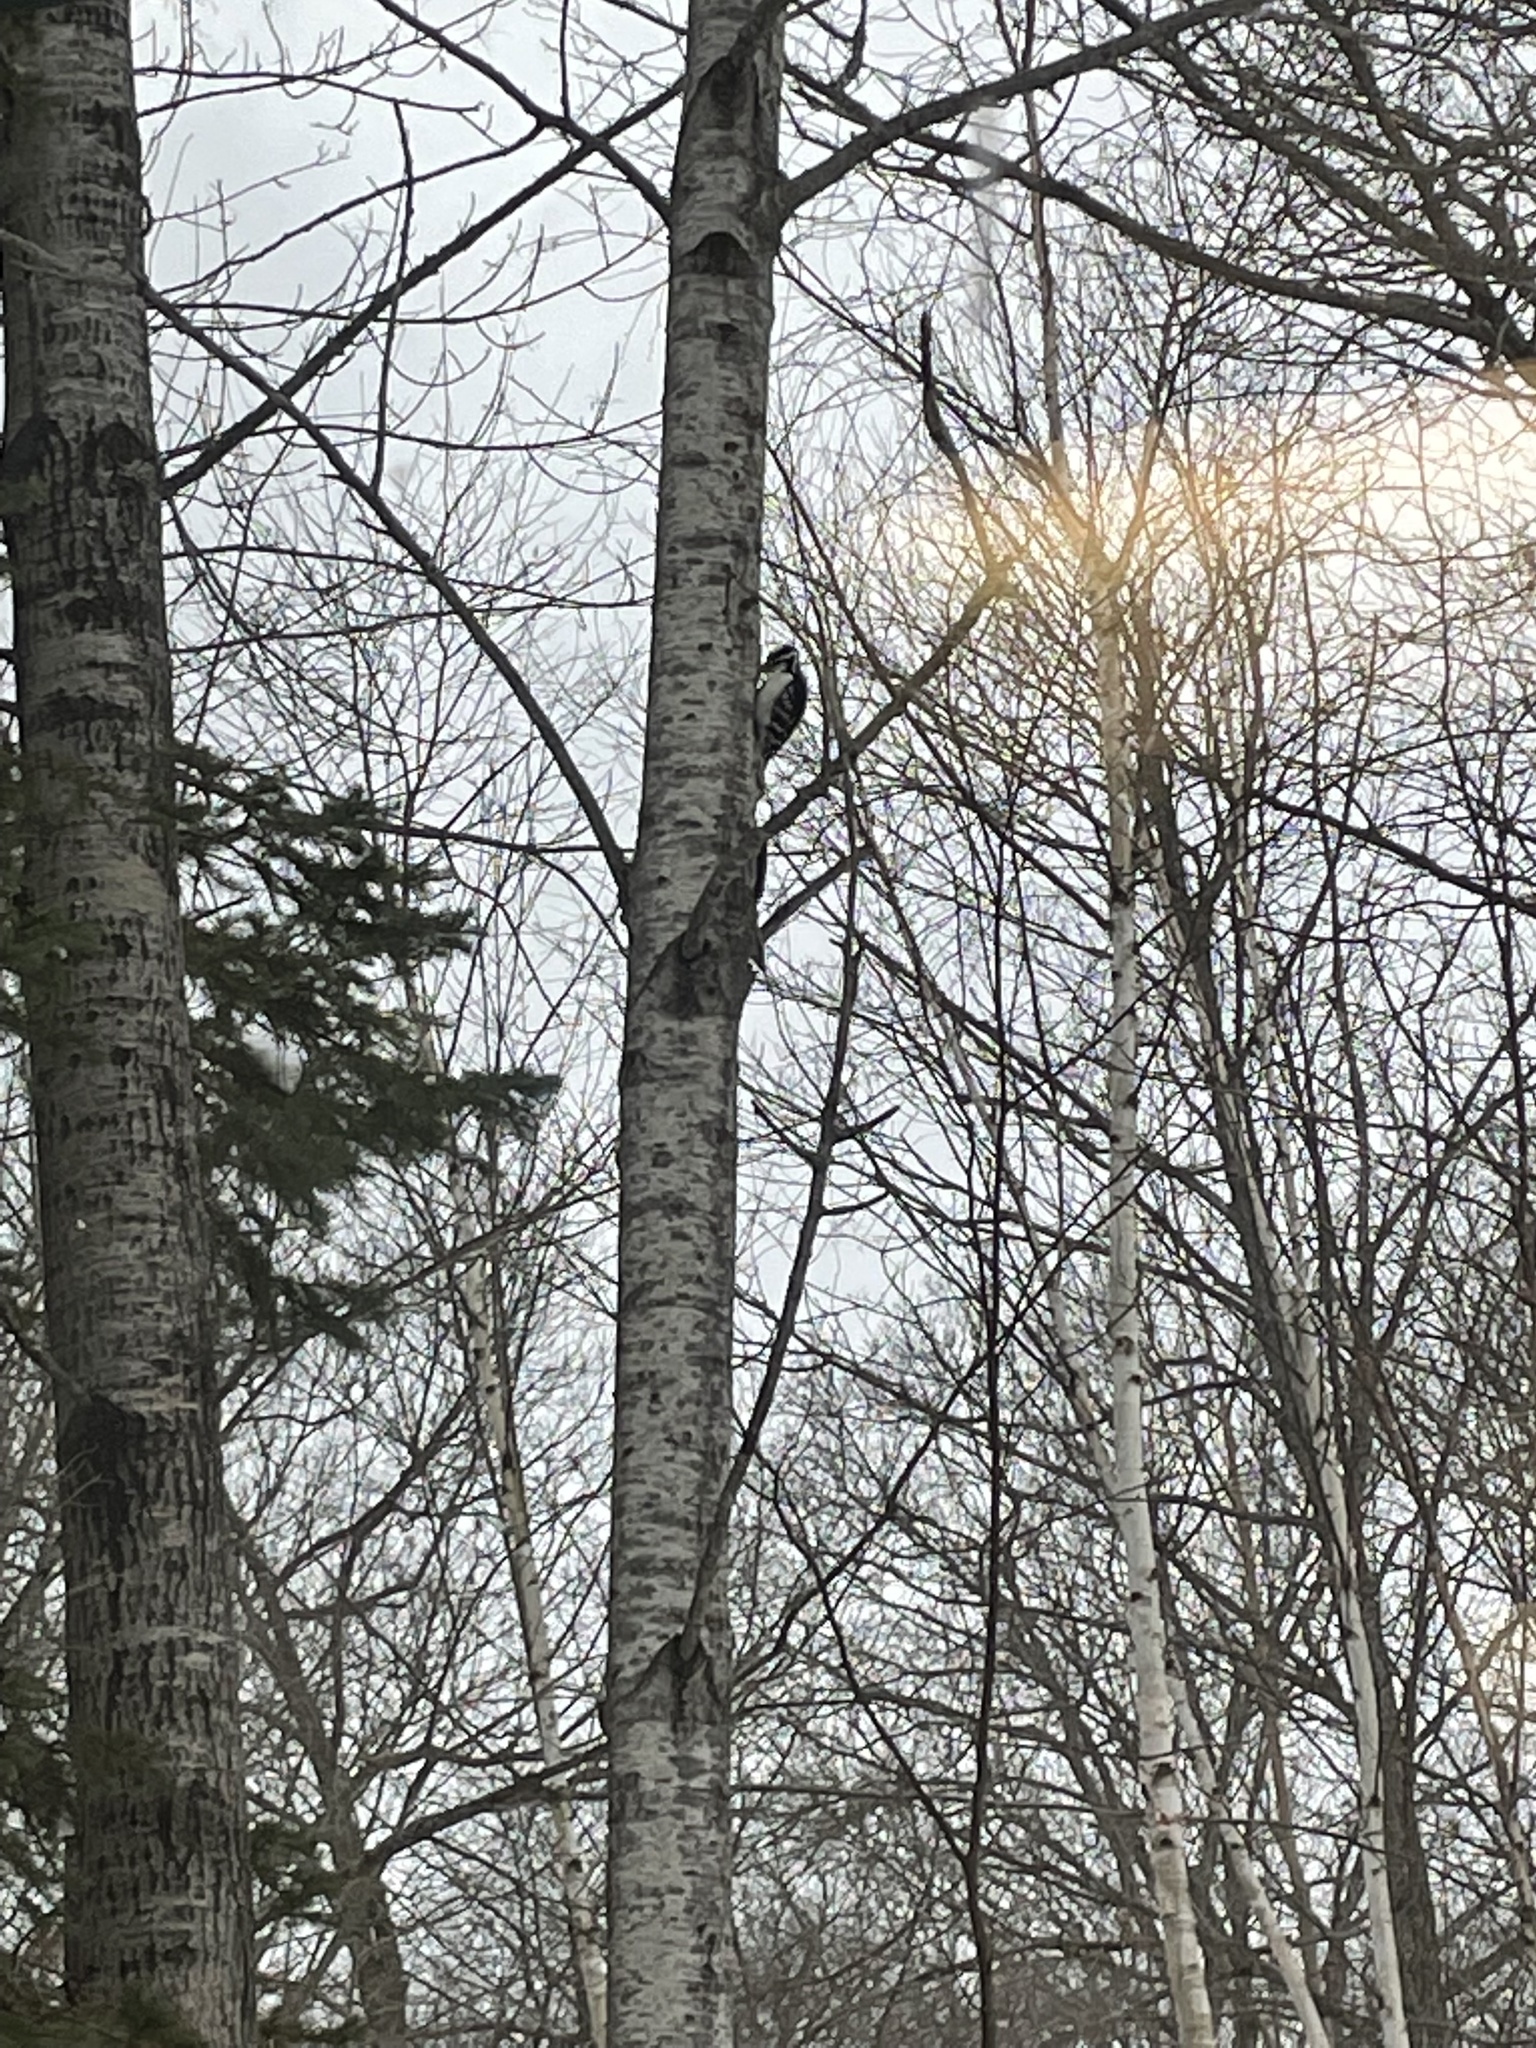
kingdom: Animalia
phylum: Chordata
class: Aves
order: Piciformes
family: Picidae
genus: Leuconotopicus
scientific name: Leuconotopicus villosus
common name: Hairy woodpecker
